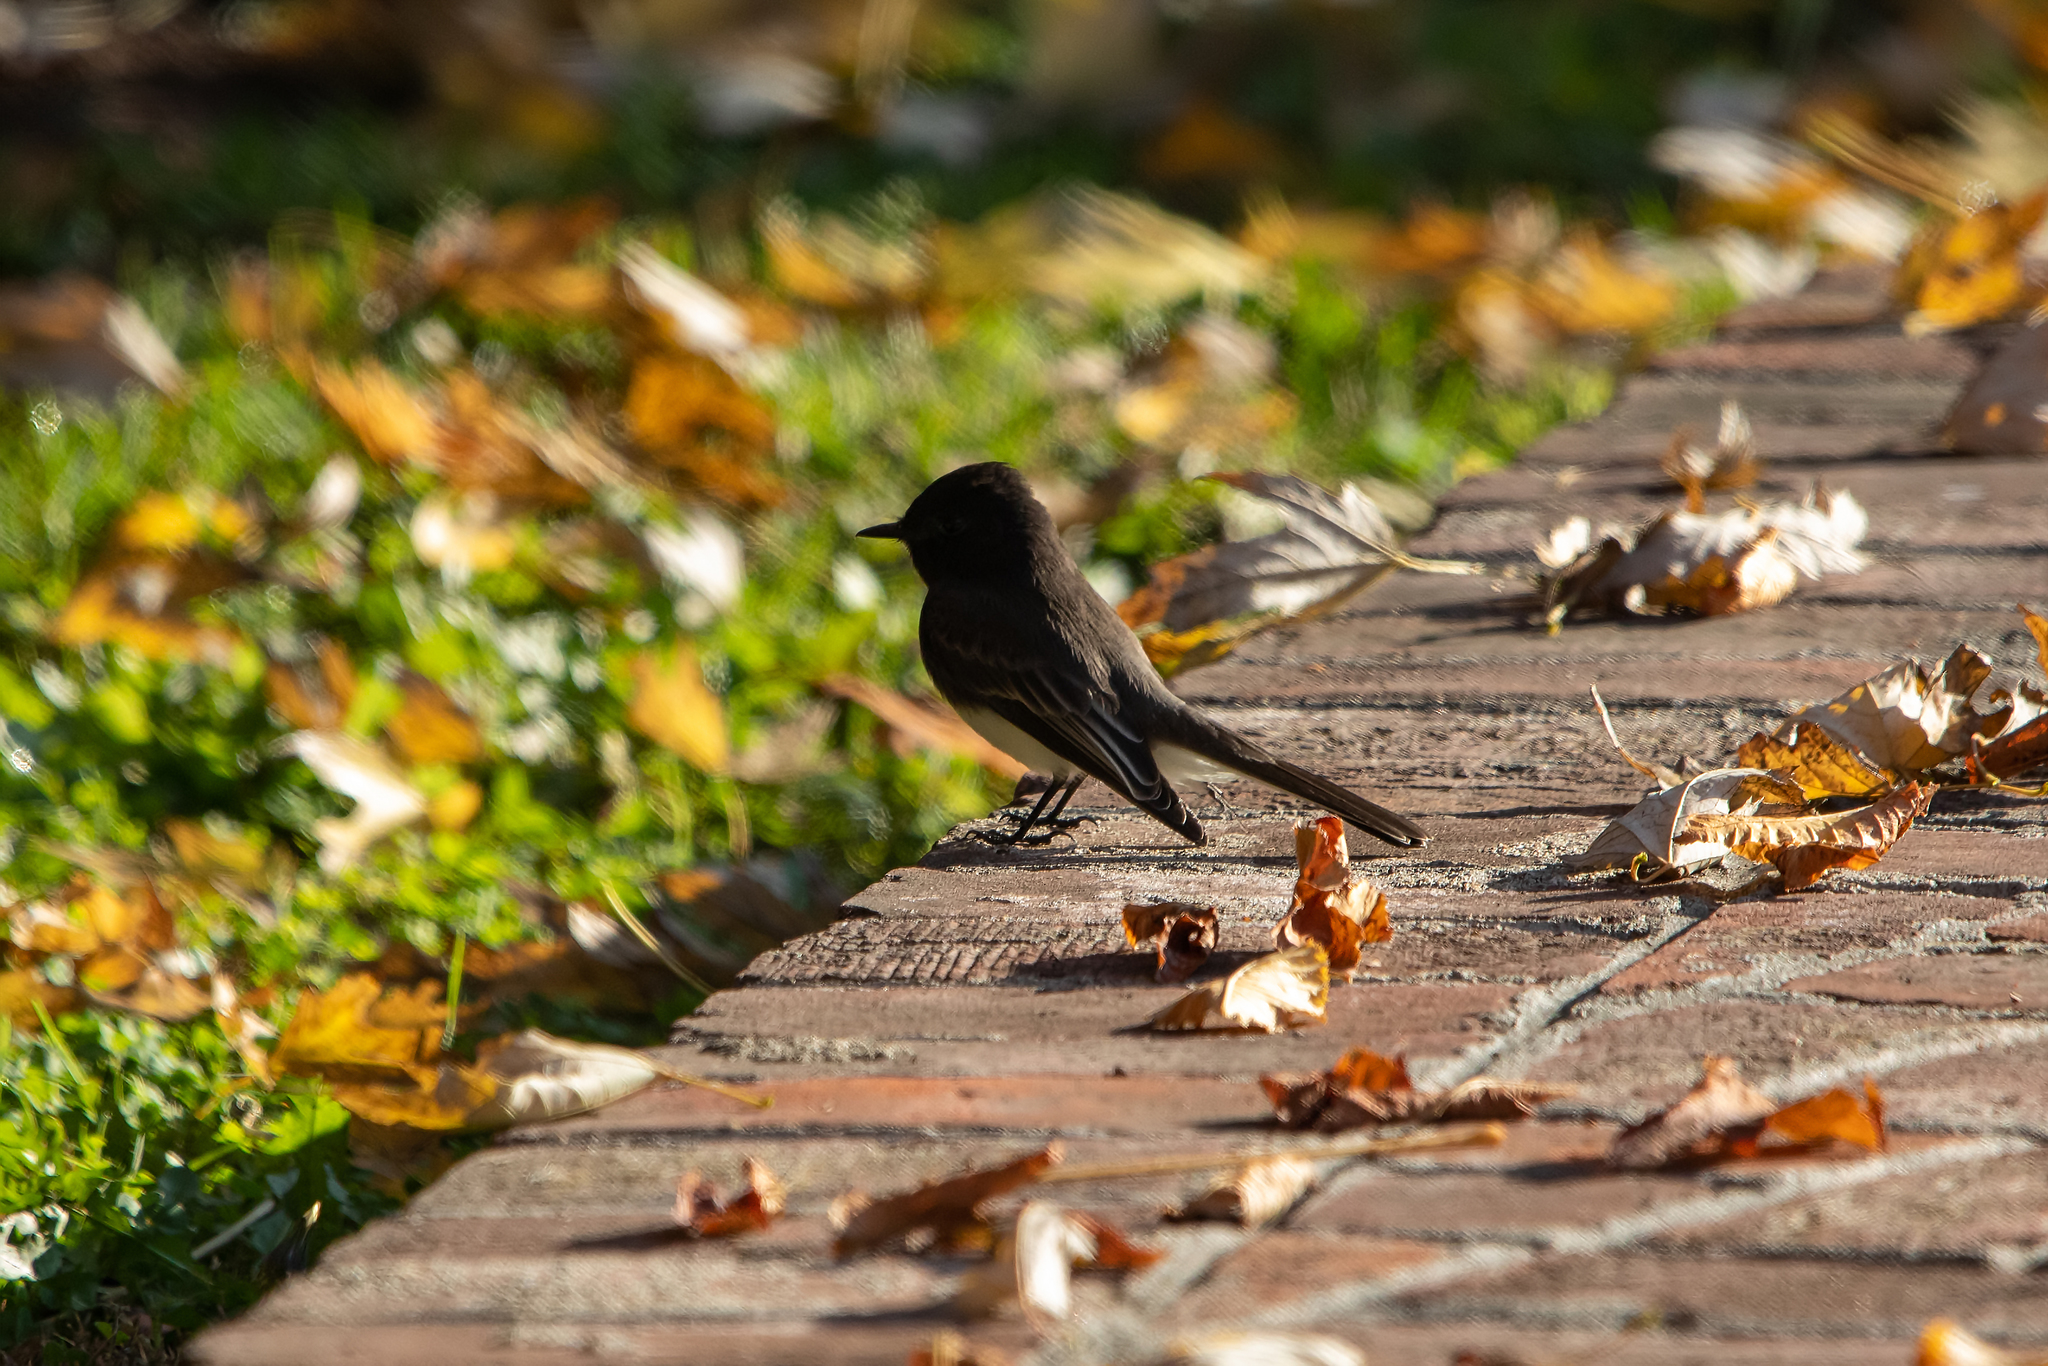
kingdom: Animalia
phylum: Chordata
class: Aves
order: Passeriformes
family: Tyrannidae
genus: Sayornis
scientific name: Sayornis nigricans
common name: Black phoebe
